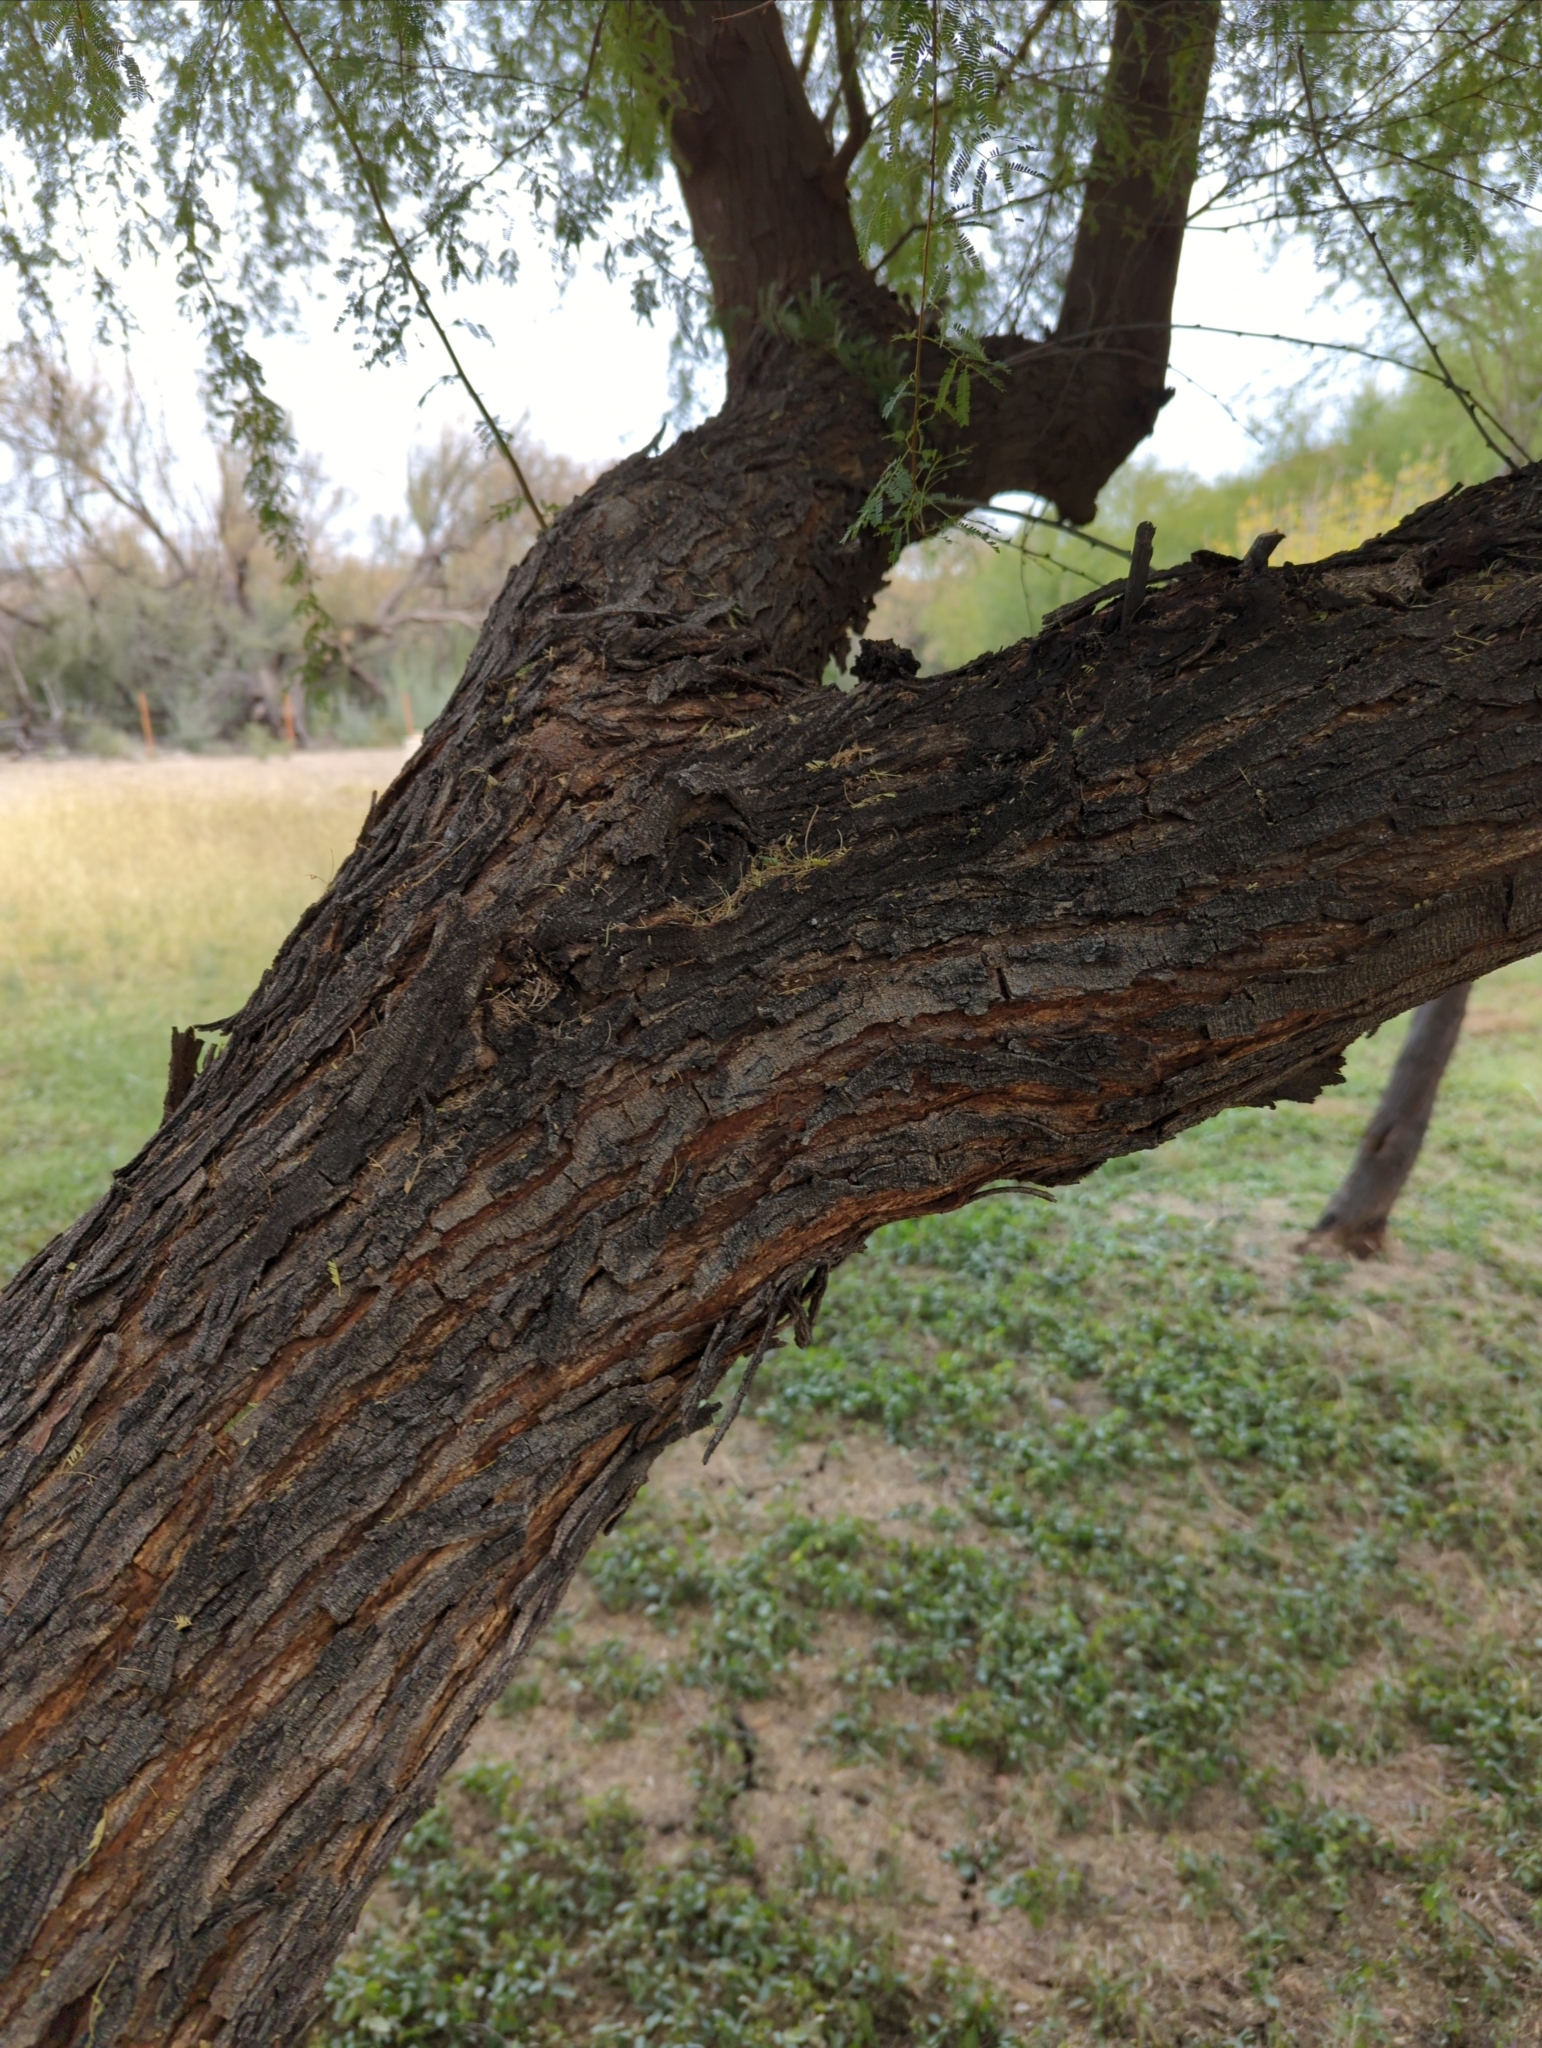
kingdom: Plantae
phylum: Tracheophyta
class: Magnoliopsida
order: Fabales
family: Fabaceae
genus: Vachellia
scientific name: Vachellia farnesiana
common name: Sweet acacia
